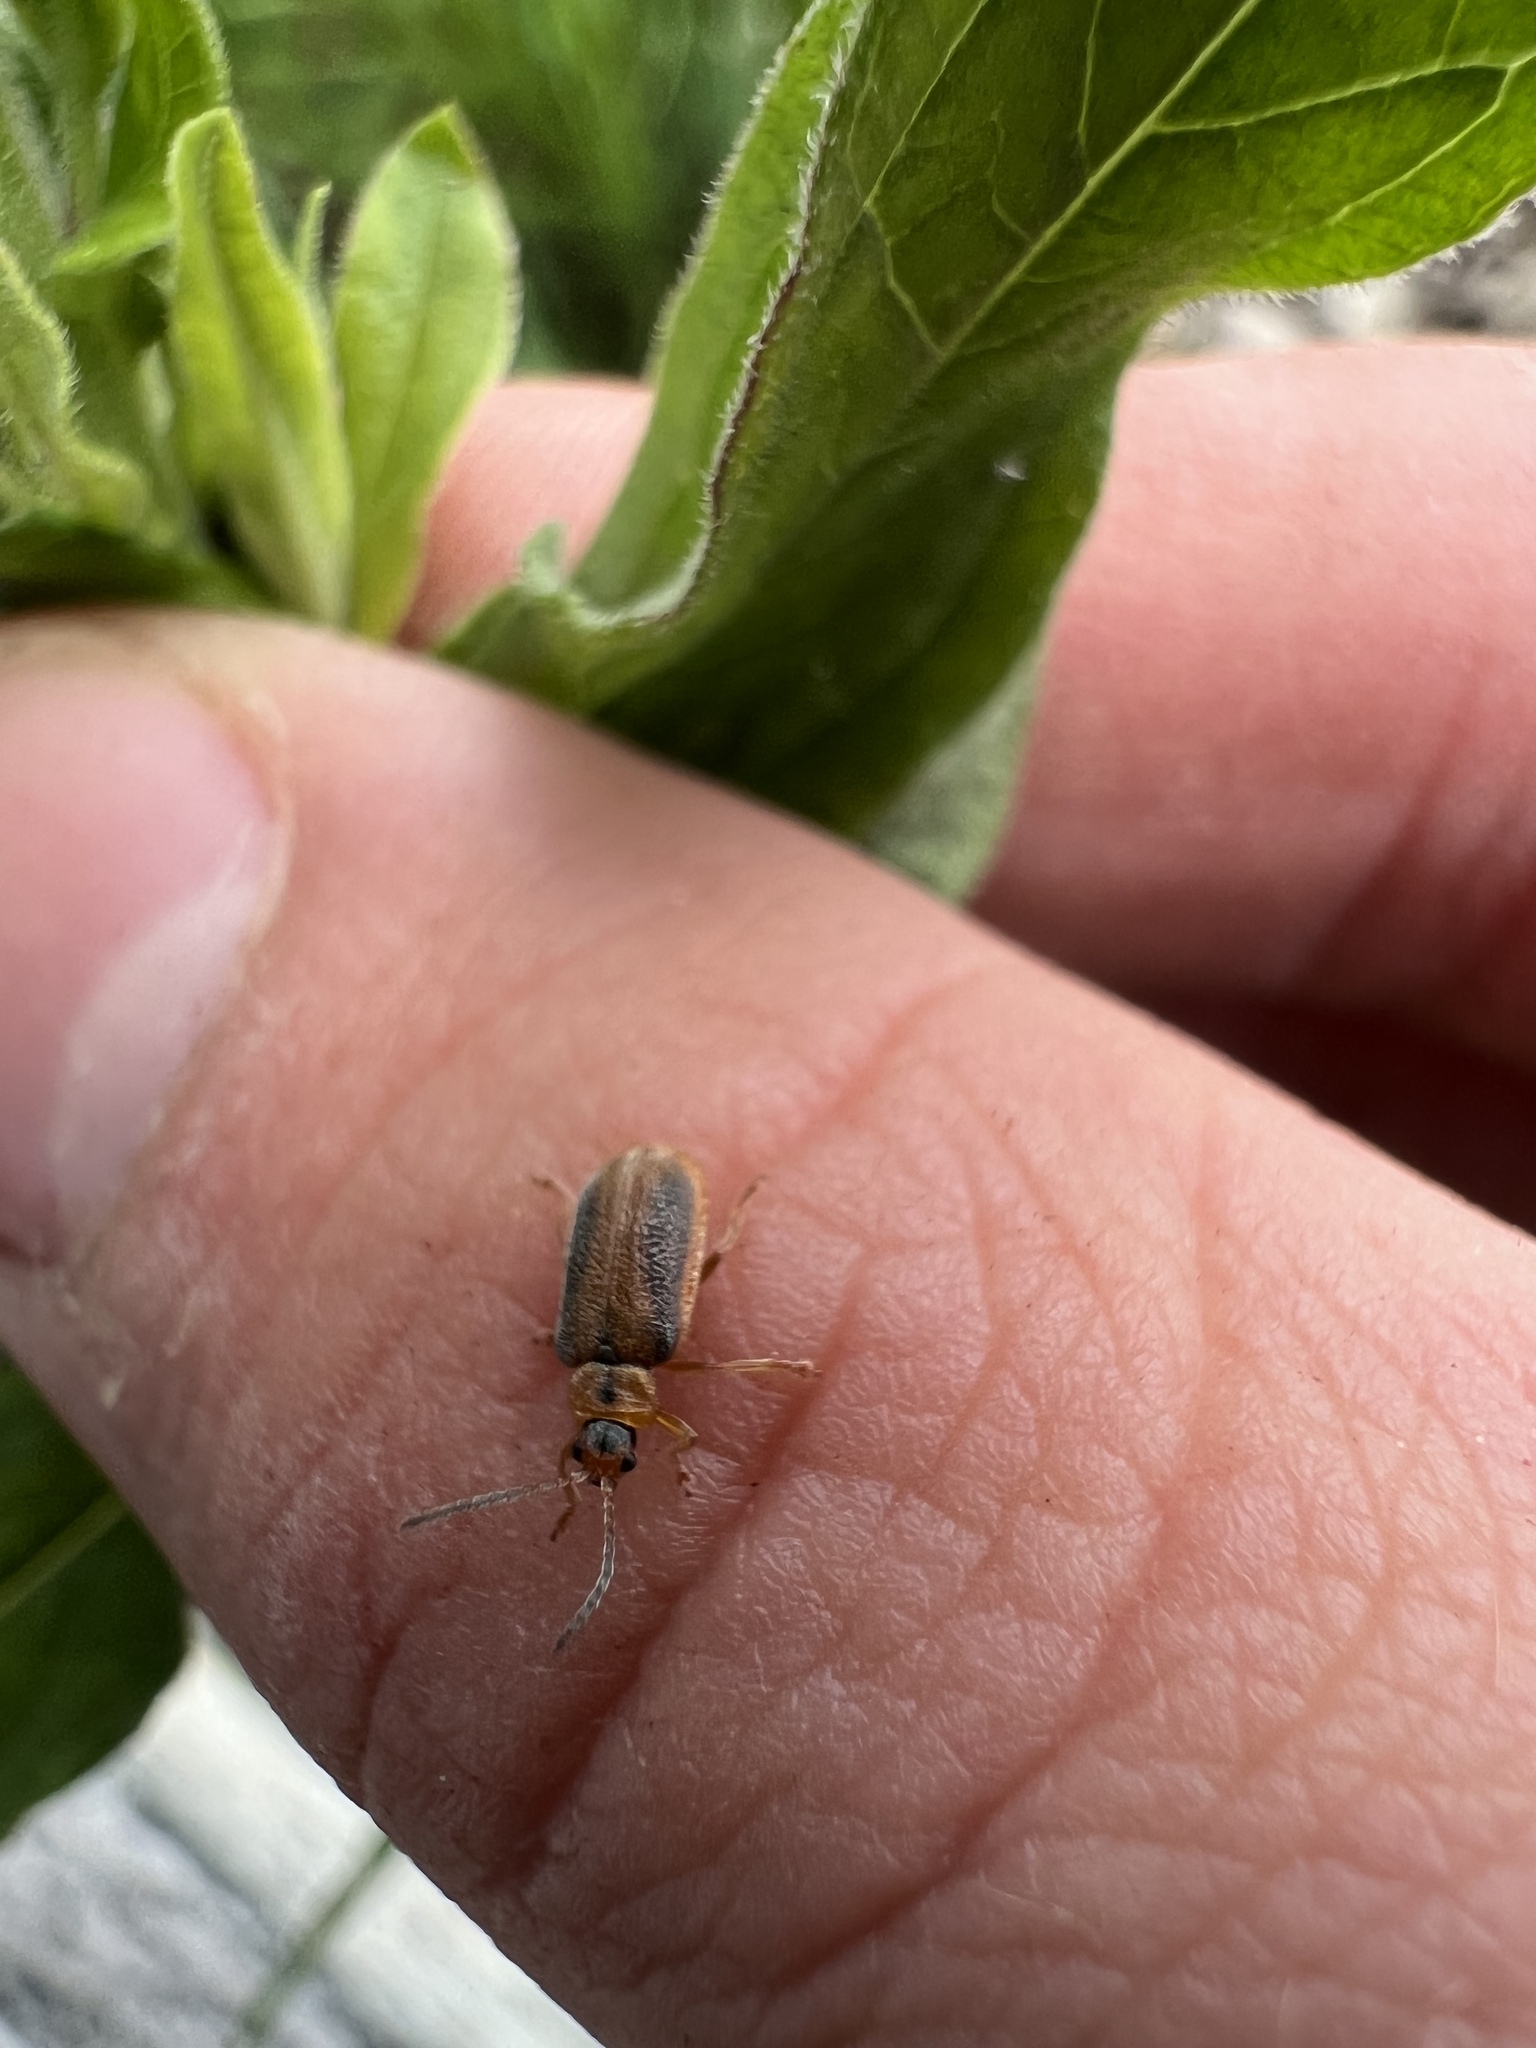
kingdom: Animalia
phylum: Arthropoda
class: Insecta
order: Coleoptera
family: Chrysomelidae
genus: Neogalerucella
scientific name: Neogalerucella calmariensis
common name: Black-margined loosestrife beetle
